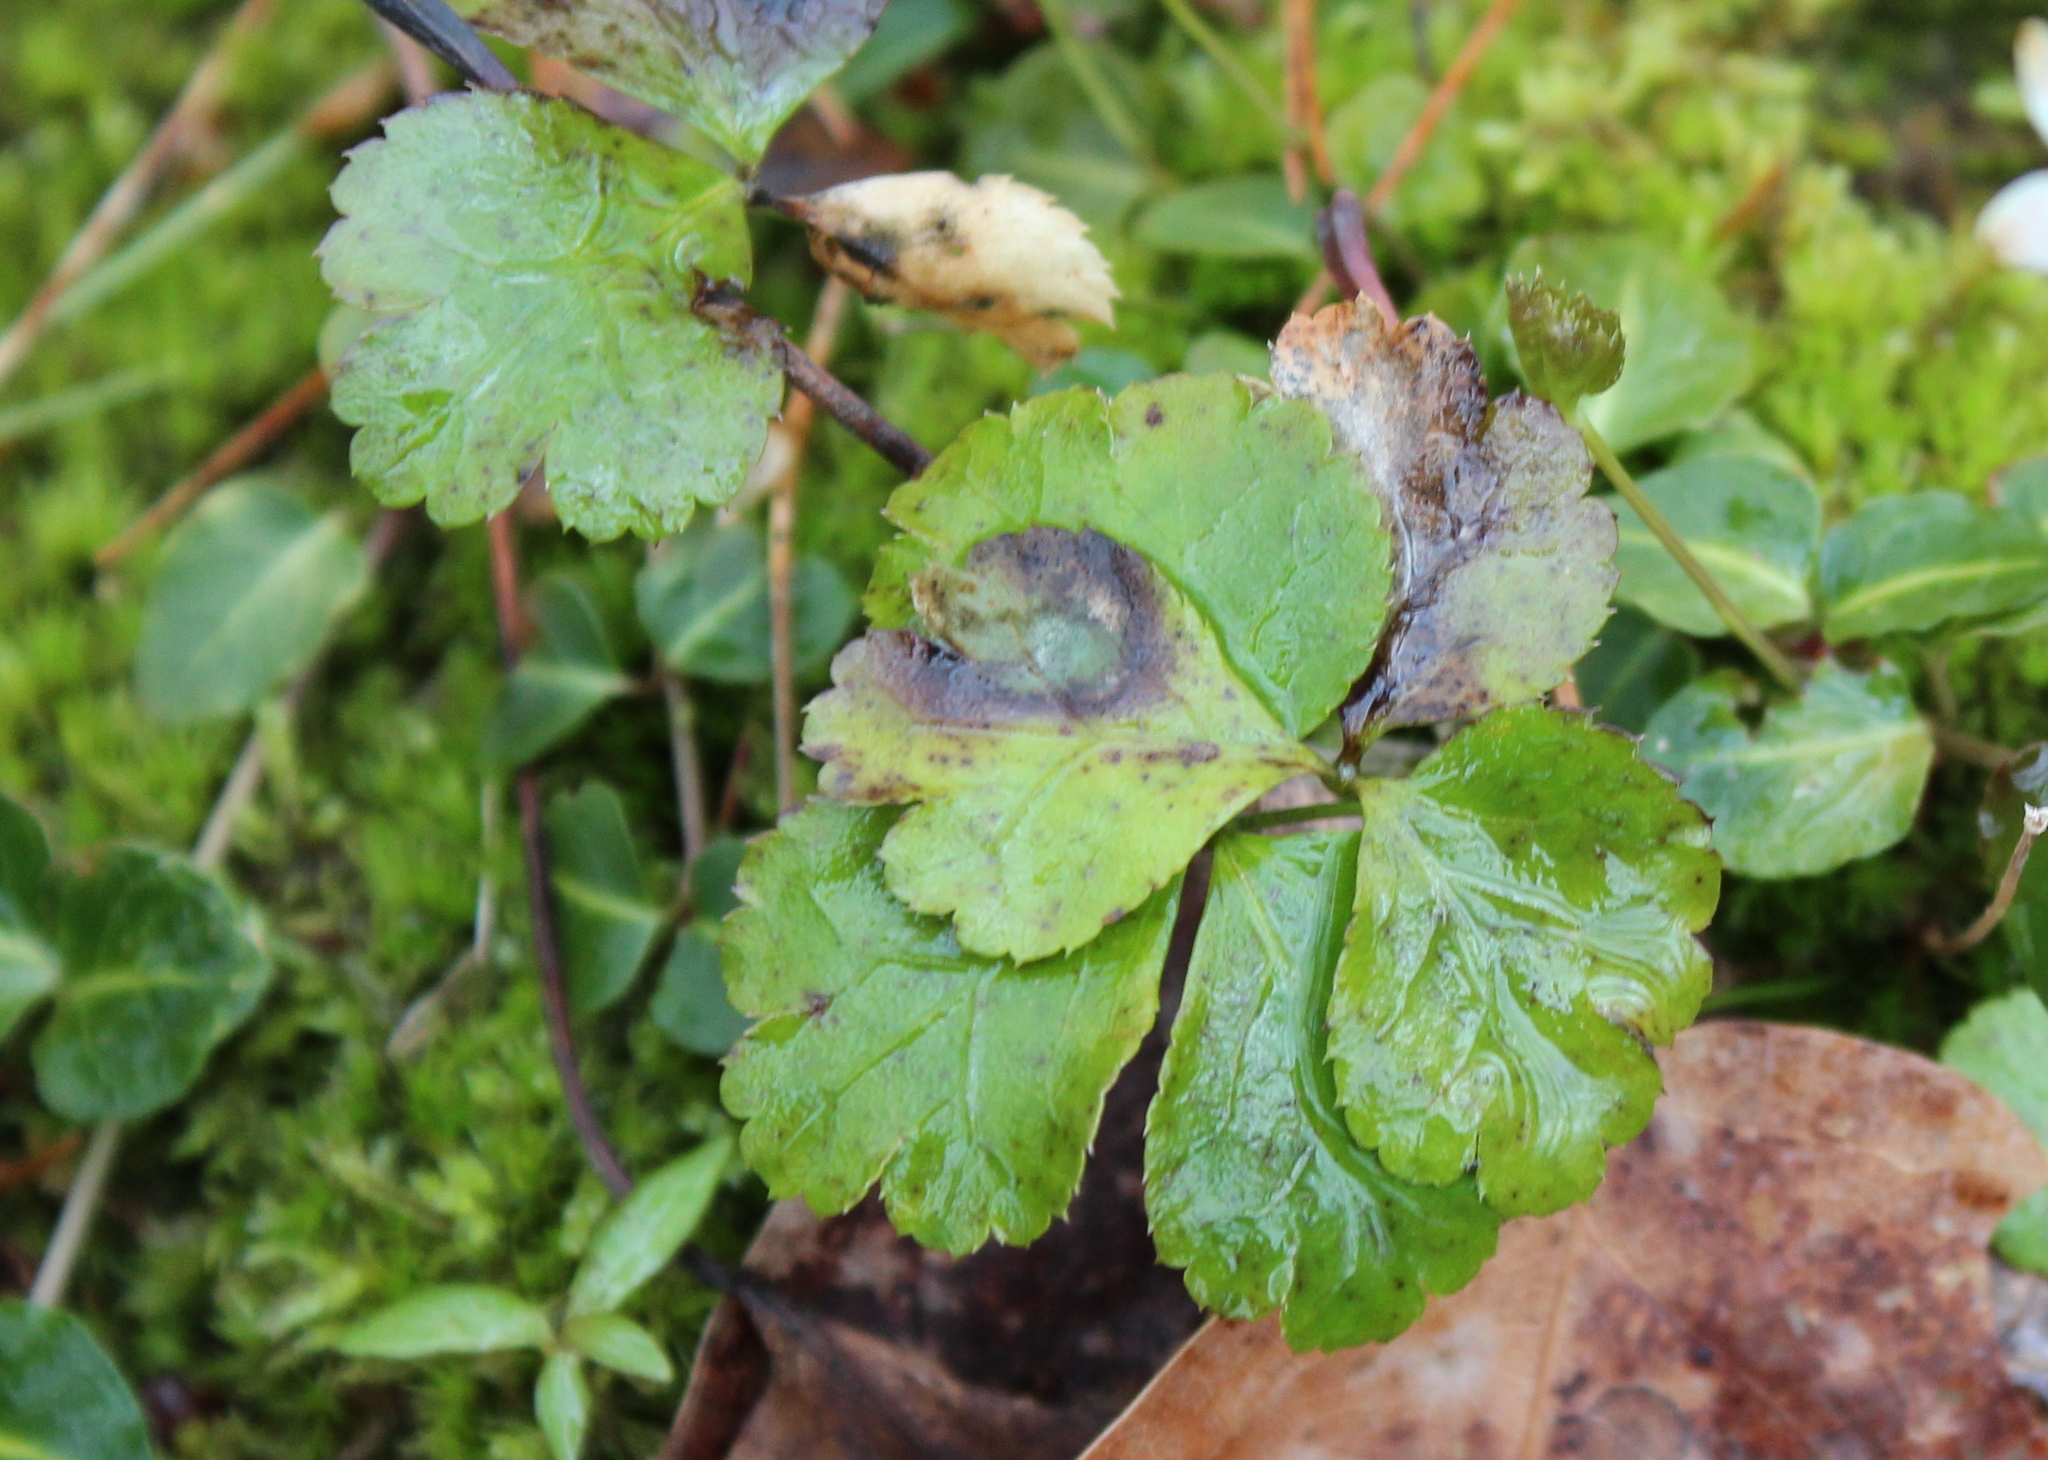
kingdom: Plantae
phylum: Tracheophyta
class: Magnoliopsida
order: Ranunculales
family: Ranunculaceae
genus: Coptis
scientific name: Coptis trifolia
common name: Canker-root
